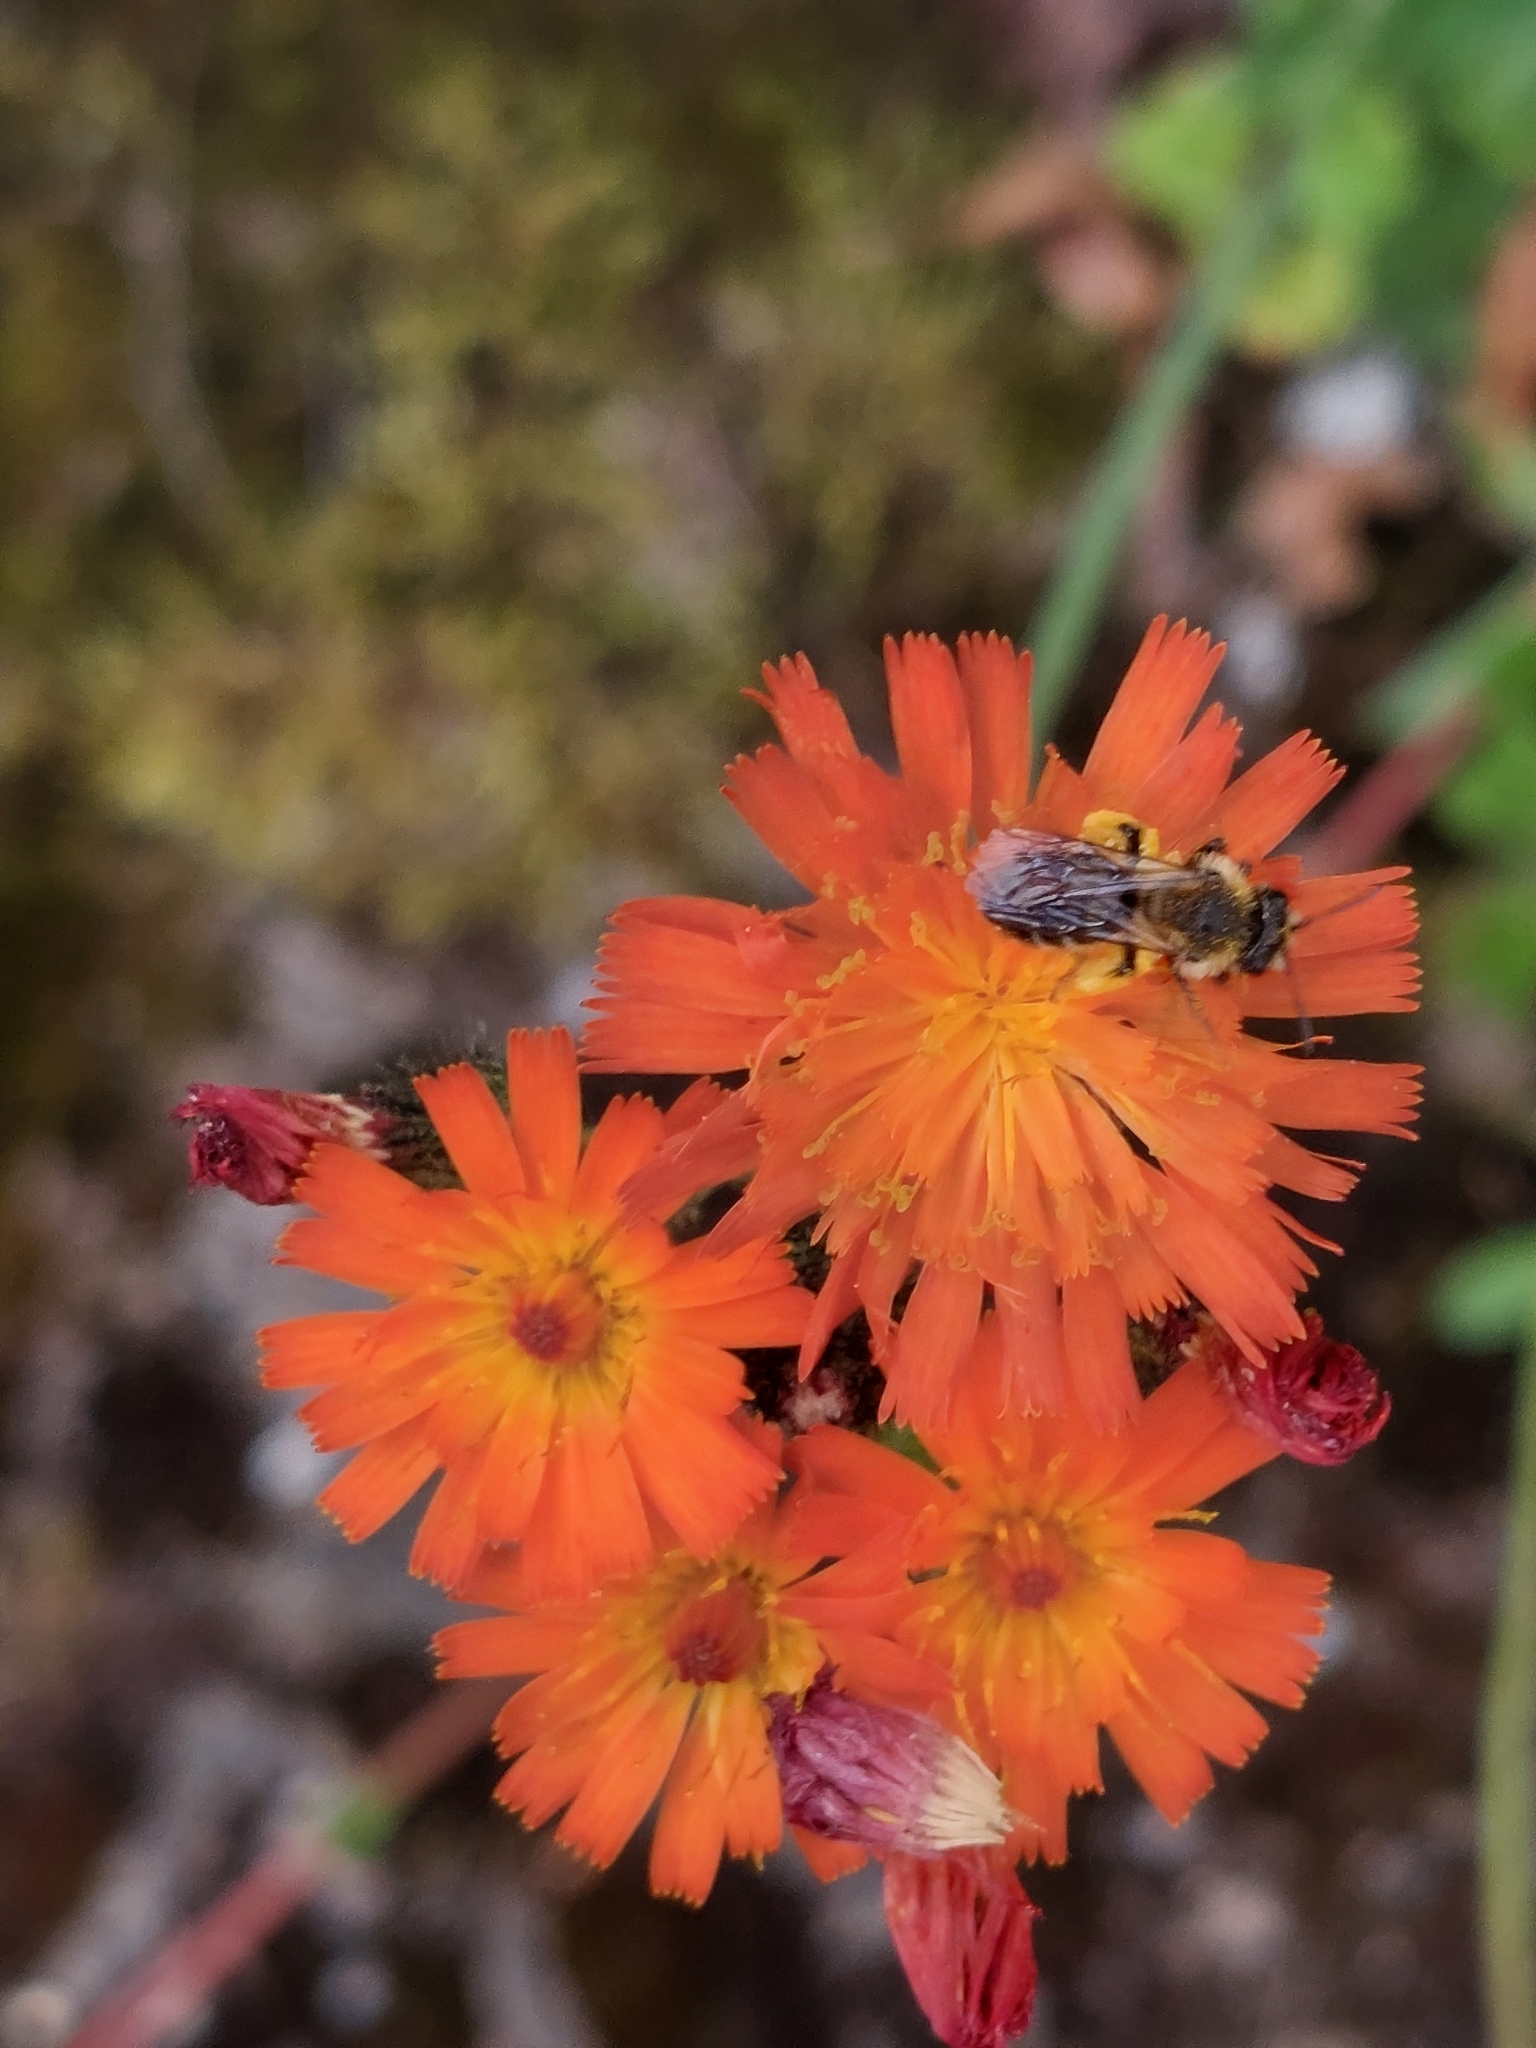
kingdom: Plantae
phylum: Tracheophyta
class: Magnoliopsida
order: Asterales
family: Asteraceae
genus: Pilosella
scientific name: Pilosella aurantiaca
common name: Fox-and-cubs
